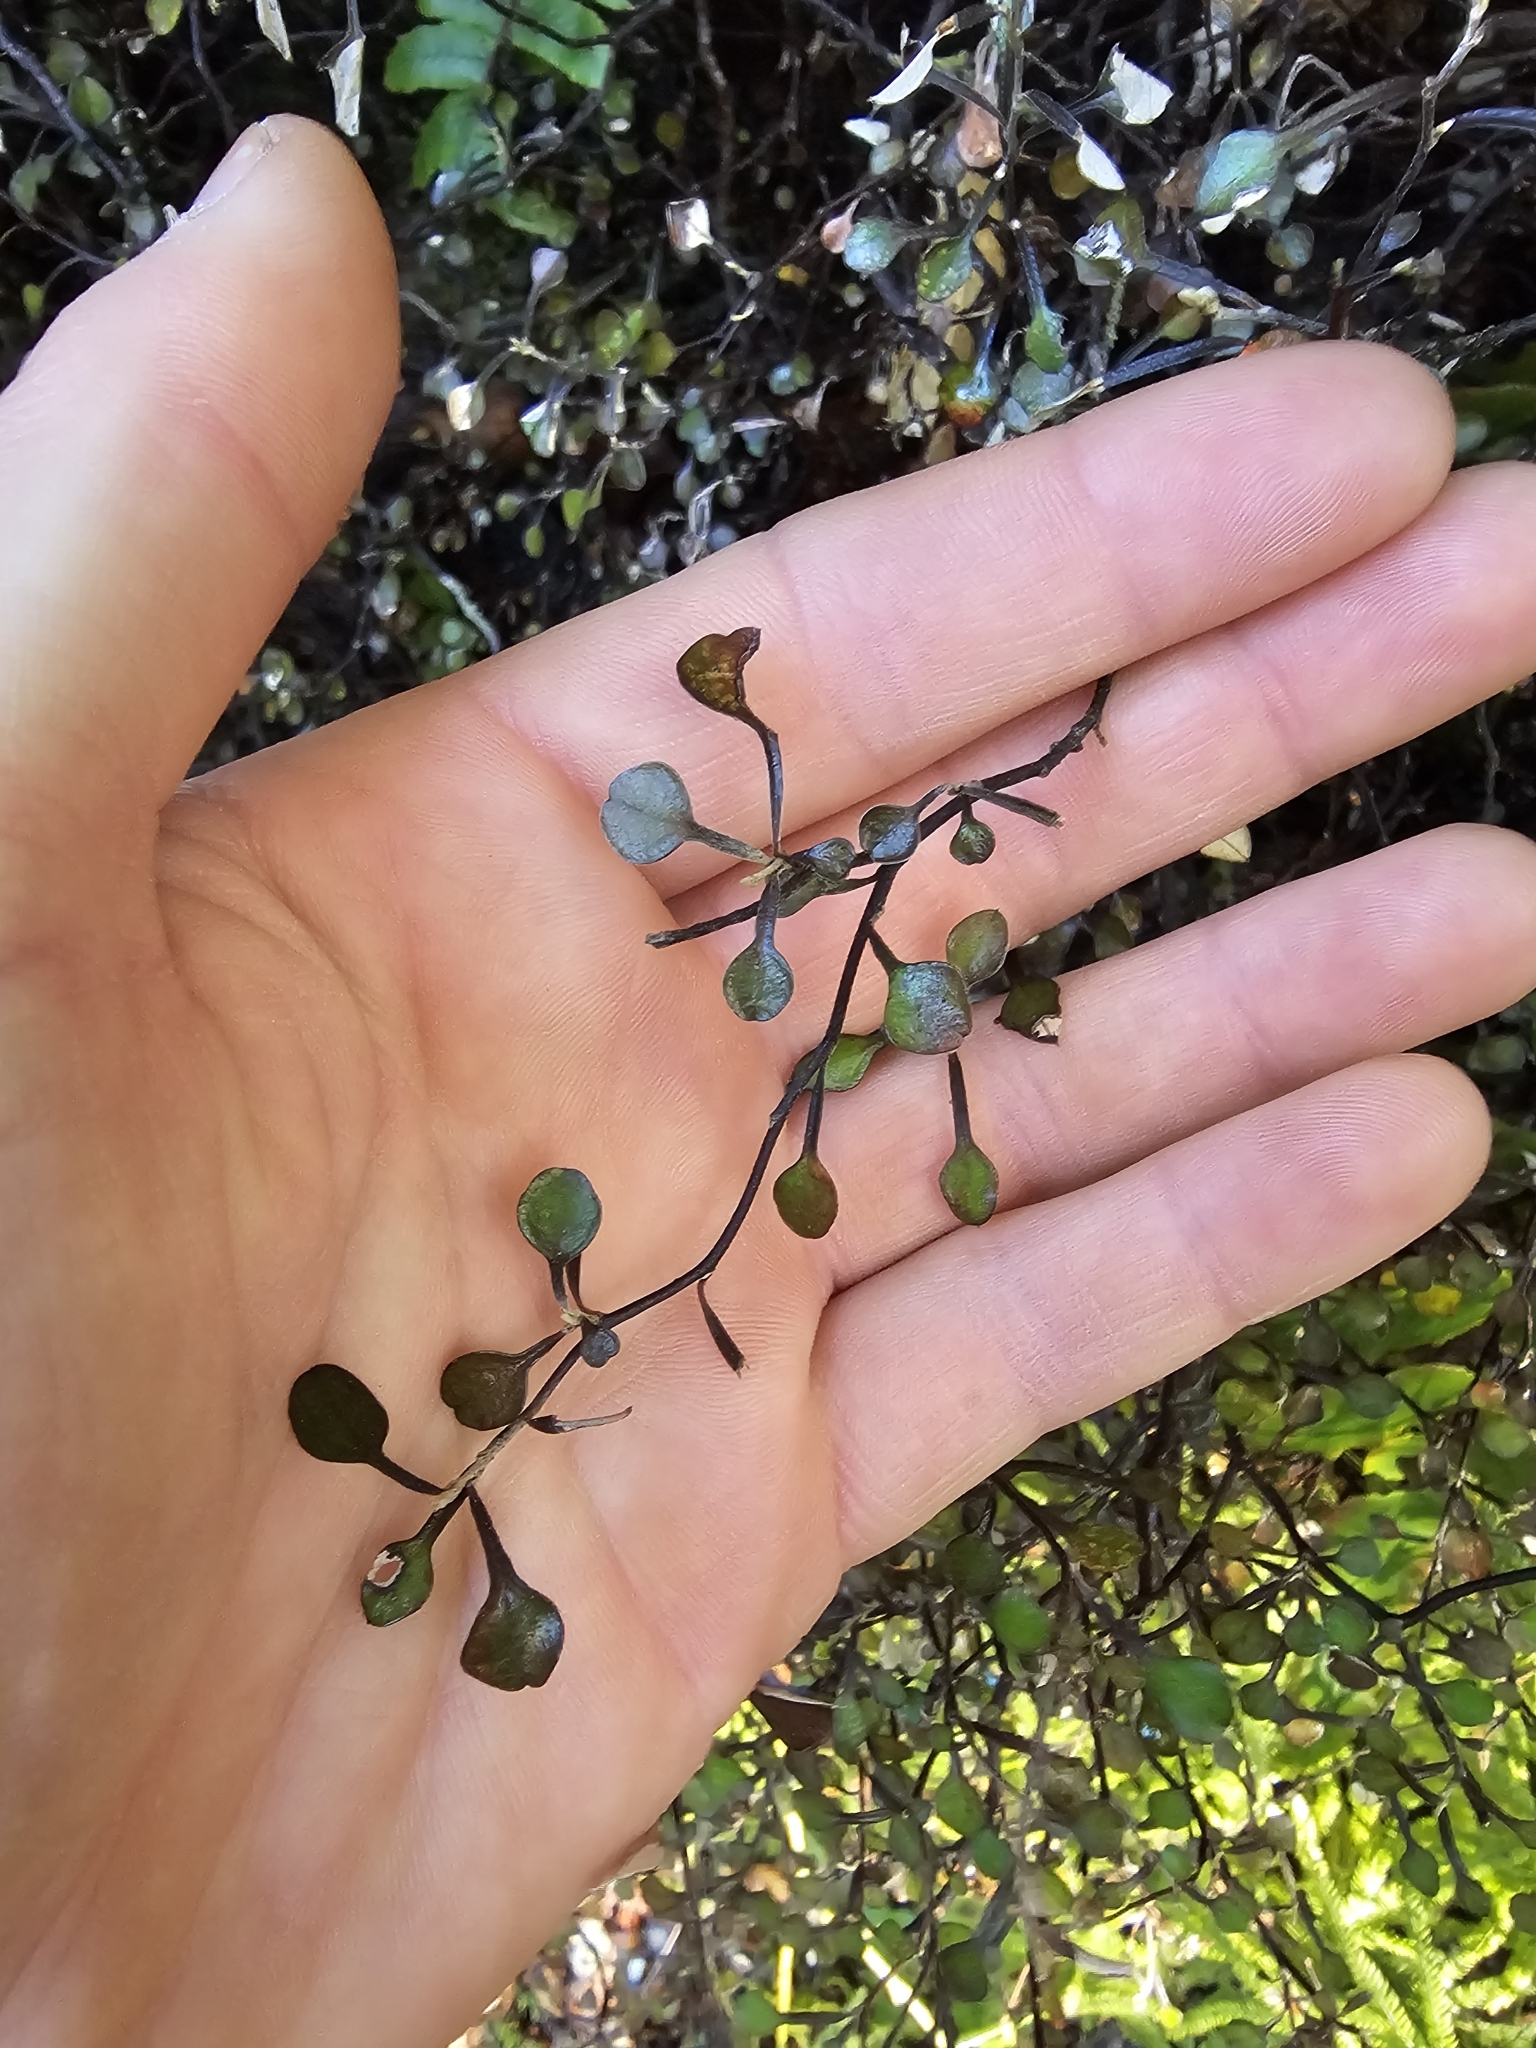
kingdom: Plantae
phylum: Tracheophyta
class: Magnoliopsida
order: Asterales
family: Argophyllaceae
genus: Corokia
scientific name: Corokia cotoneaster
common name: Wire nettingbush
